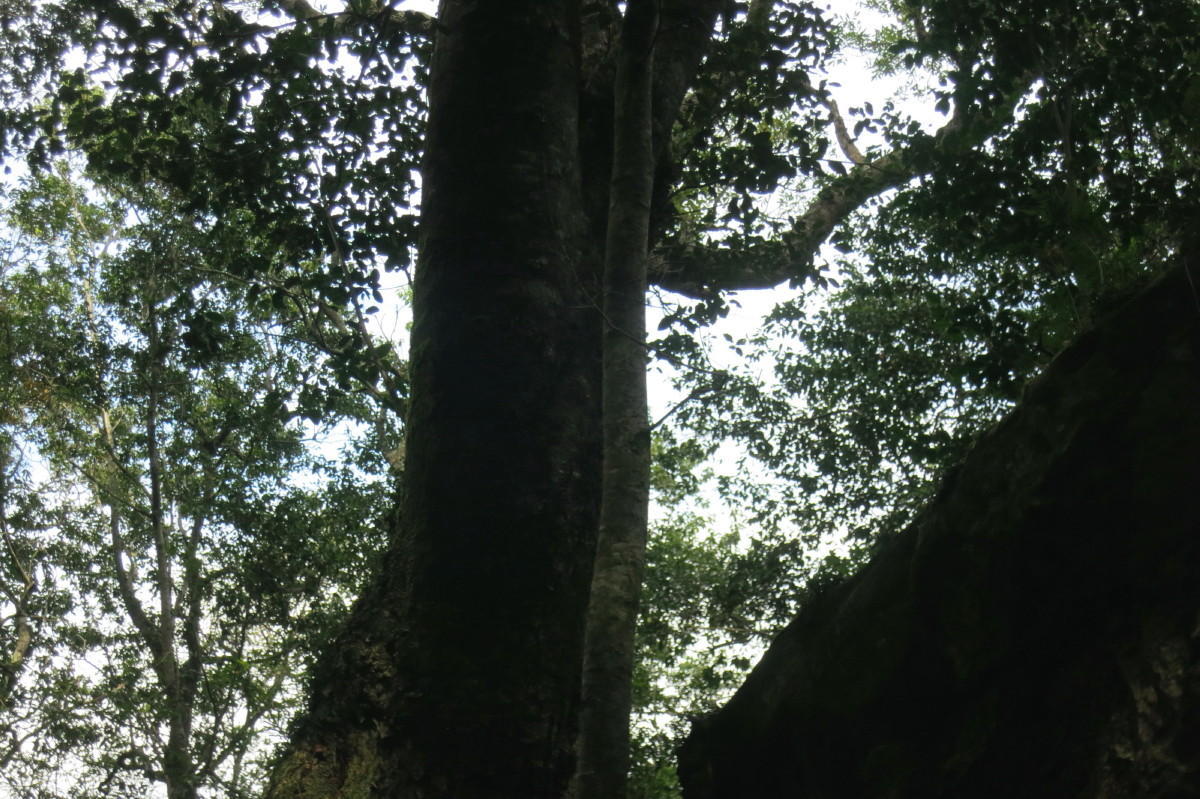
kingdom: Plantae
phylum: Tracheophyta
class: Magnoliopsida
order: Laurales
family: Lauraceae
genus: Ocotea
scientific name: Ocotea bullata
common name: Black stinkwood
